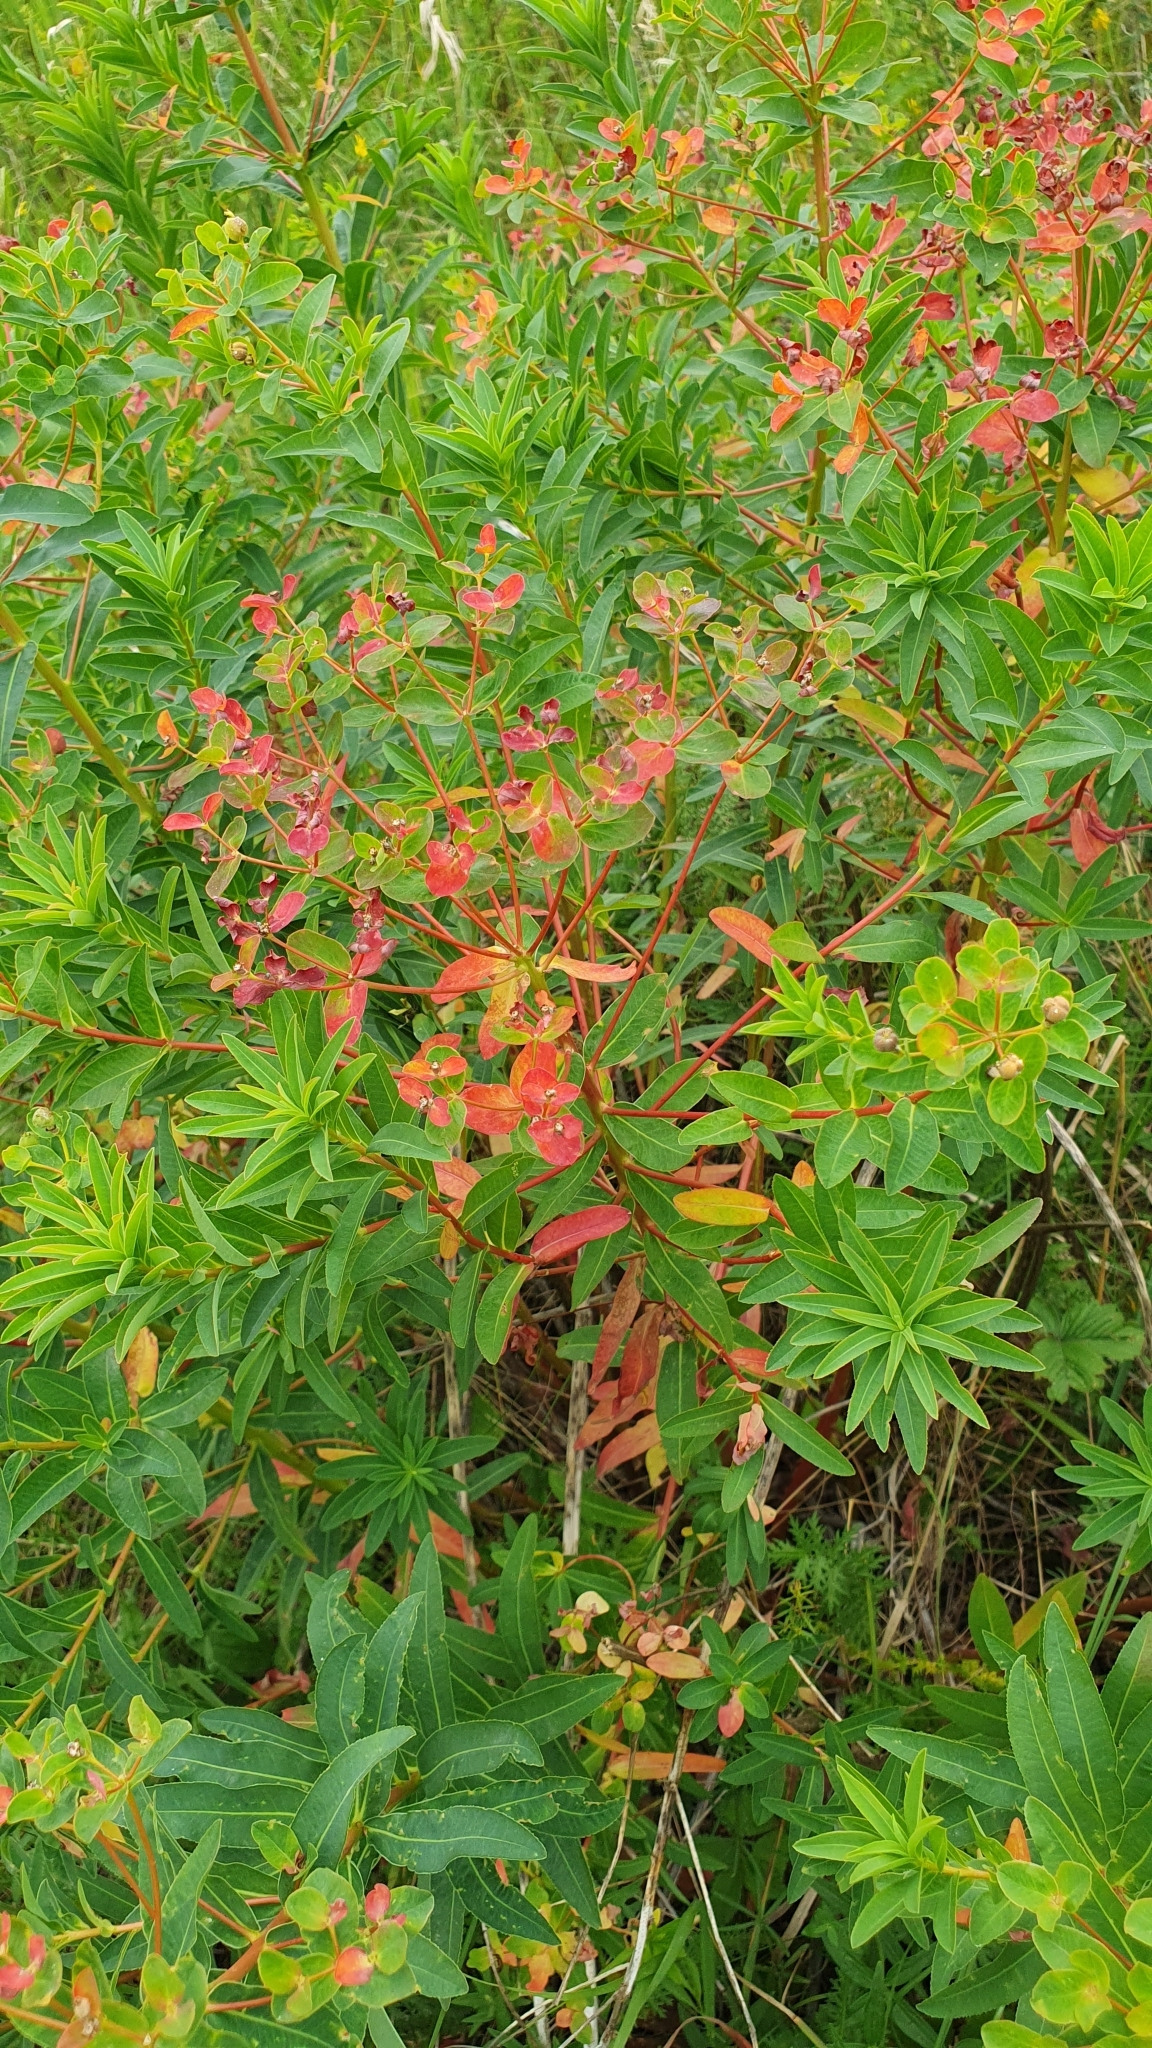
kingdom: Plantae
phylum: Tracheophyta
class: Magnoliopsida
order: Malpighiales
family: Euphorbiaceae
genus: Euphorbia
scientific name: Euphorbia semivillosa
